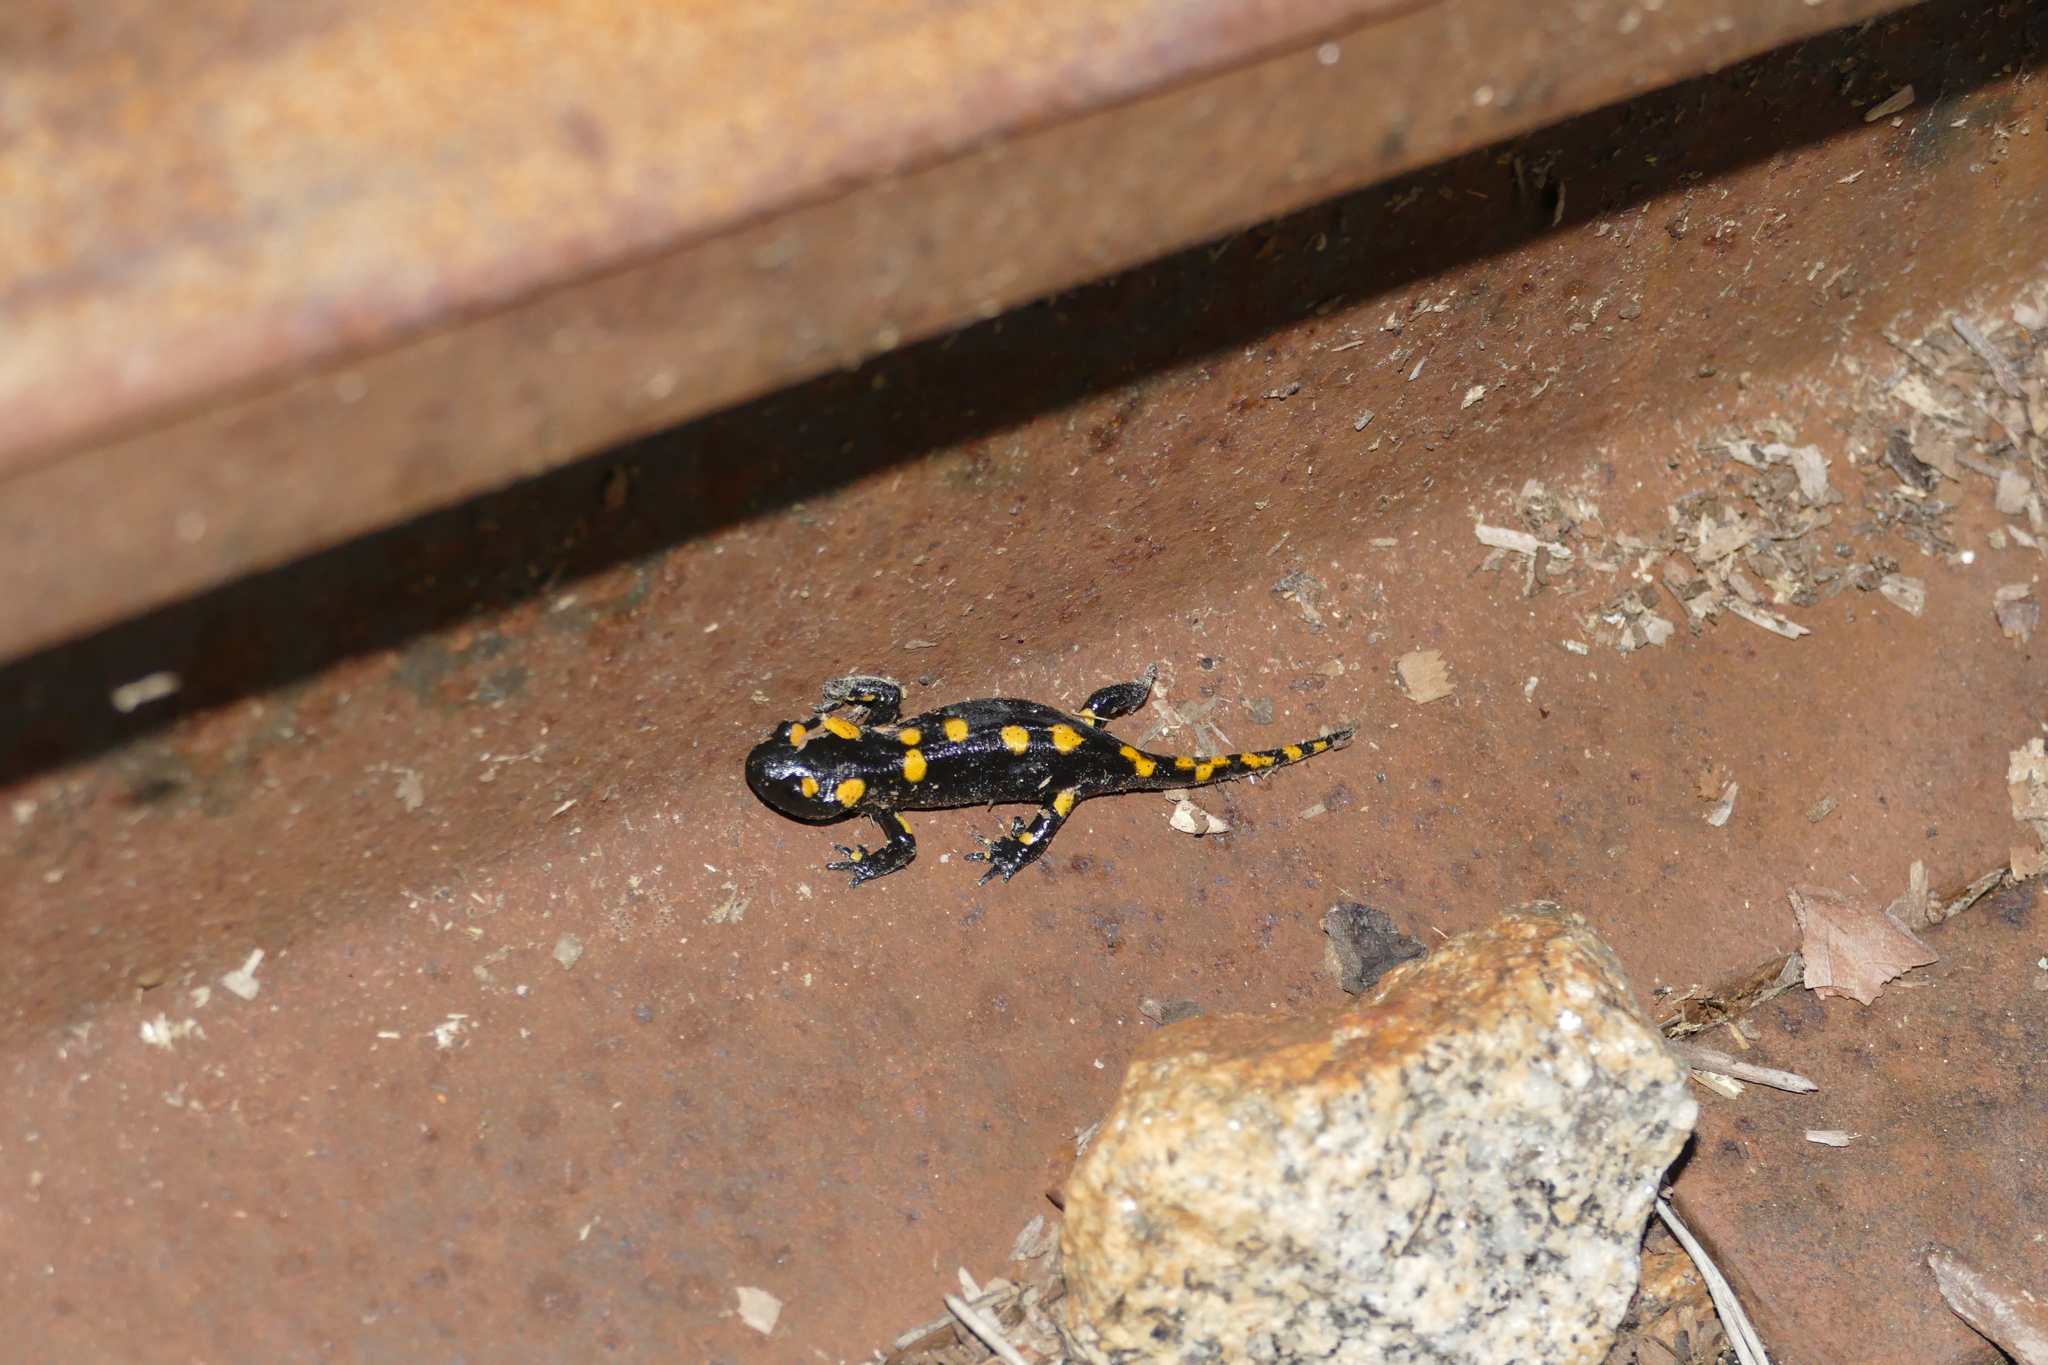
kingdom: Animalia
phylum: Chordata
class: Amphibia
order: Caudata
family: Salamandridae
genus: Salamandra
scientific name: Salamandra salamandra
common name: Fire salamander
